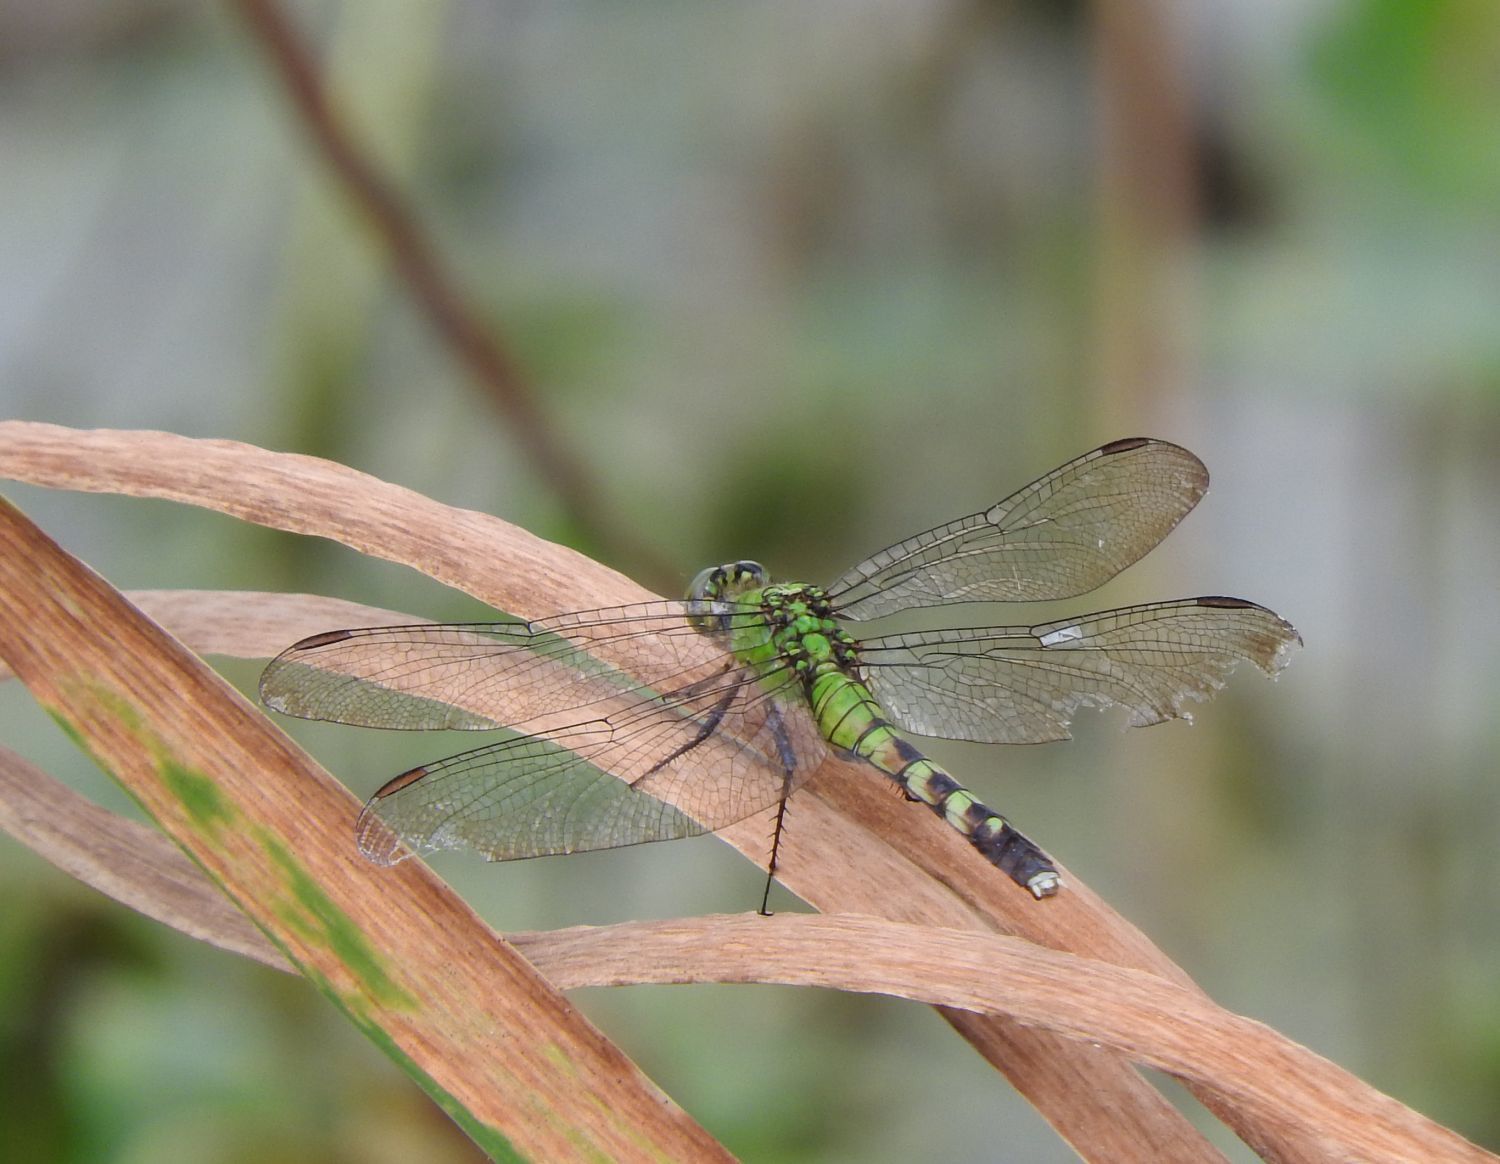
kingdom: Animalia
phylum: Arthropoda
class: Insecta
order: Odonata
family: Libellulidae
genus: Erythemis
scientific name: Erythemis simplicicollis
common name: Eastern pondhawk
